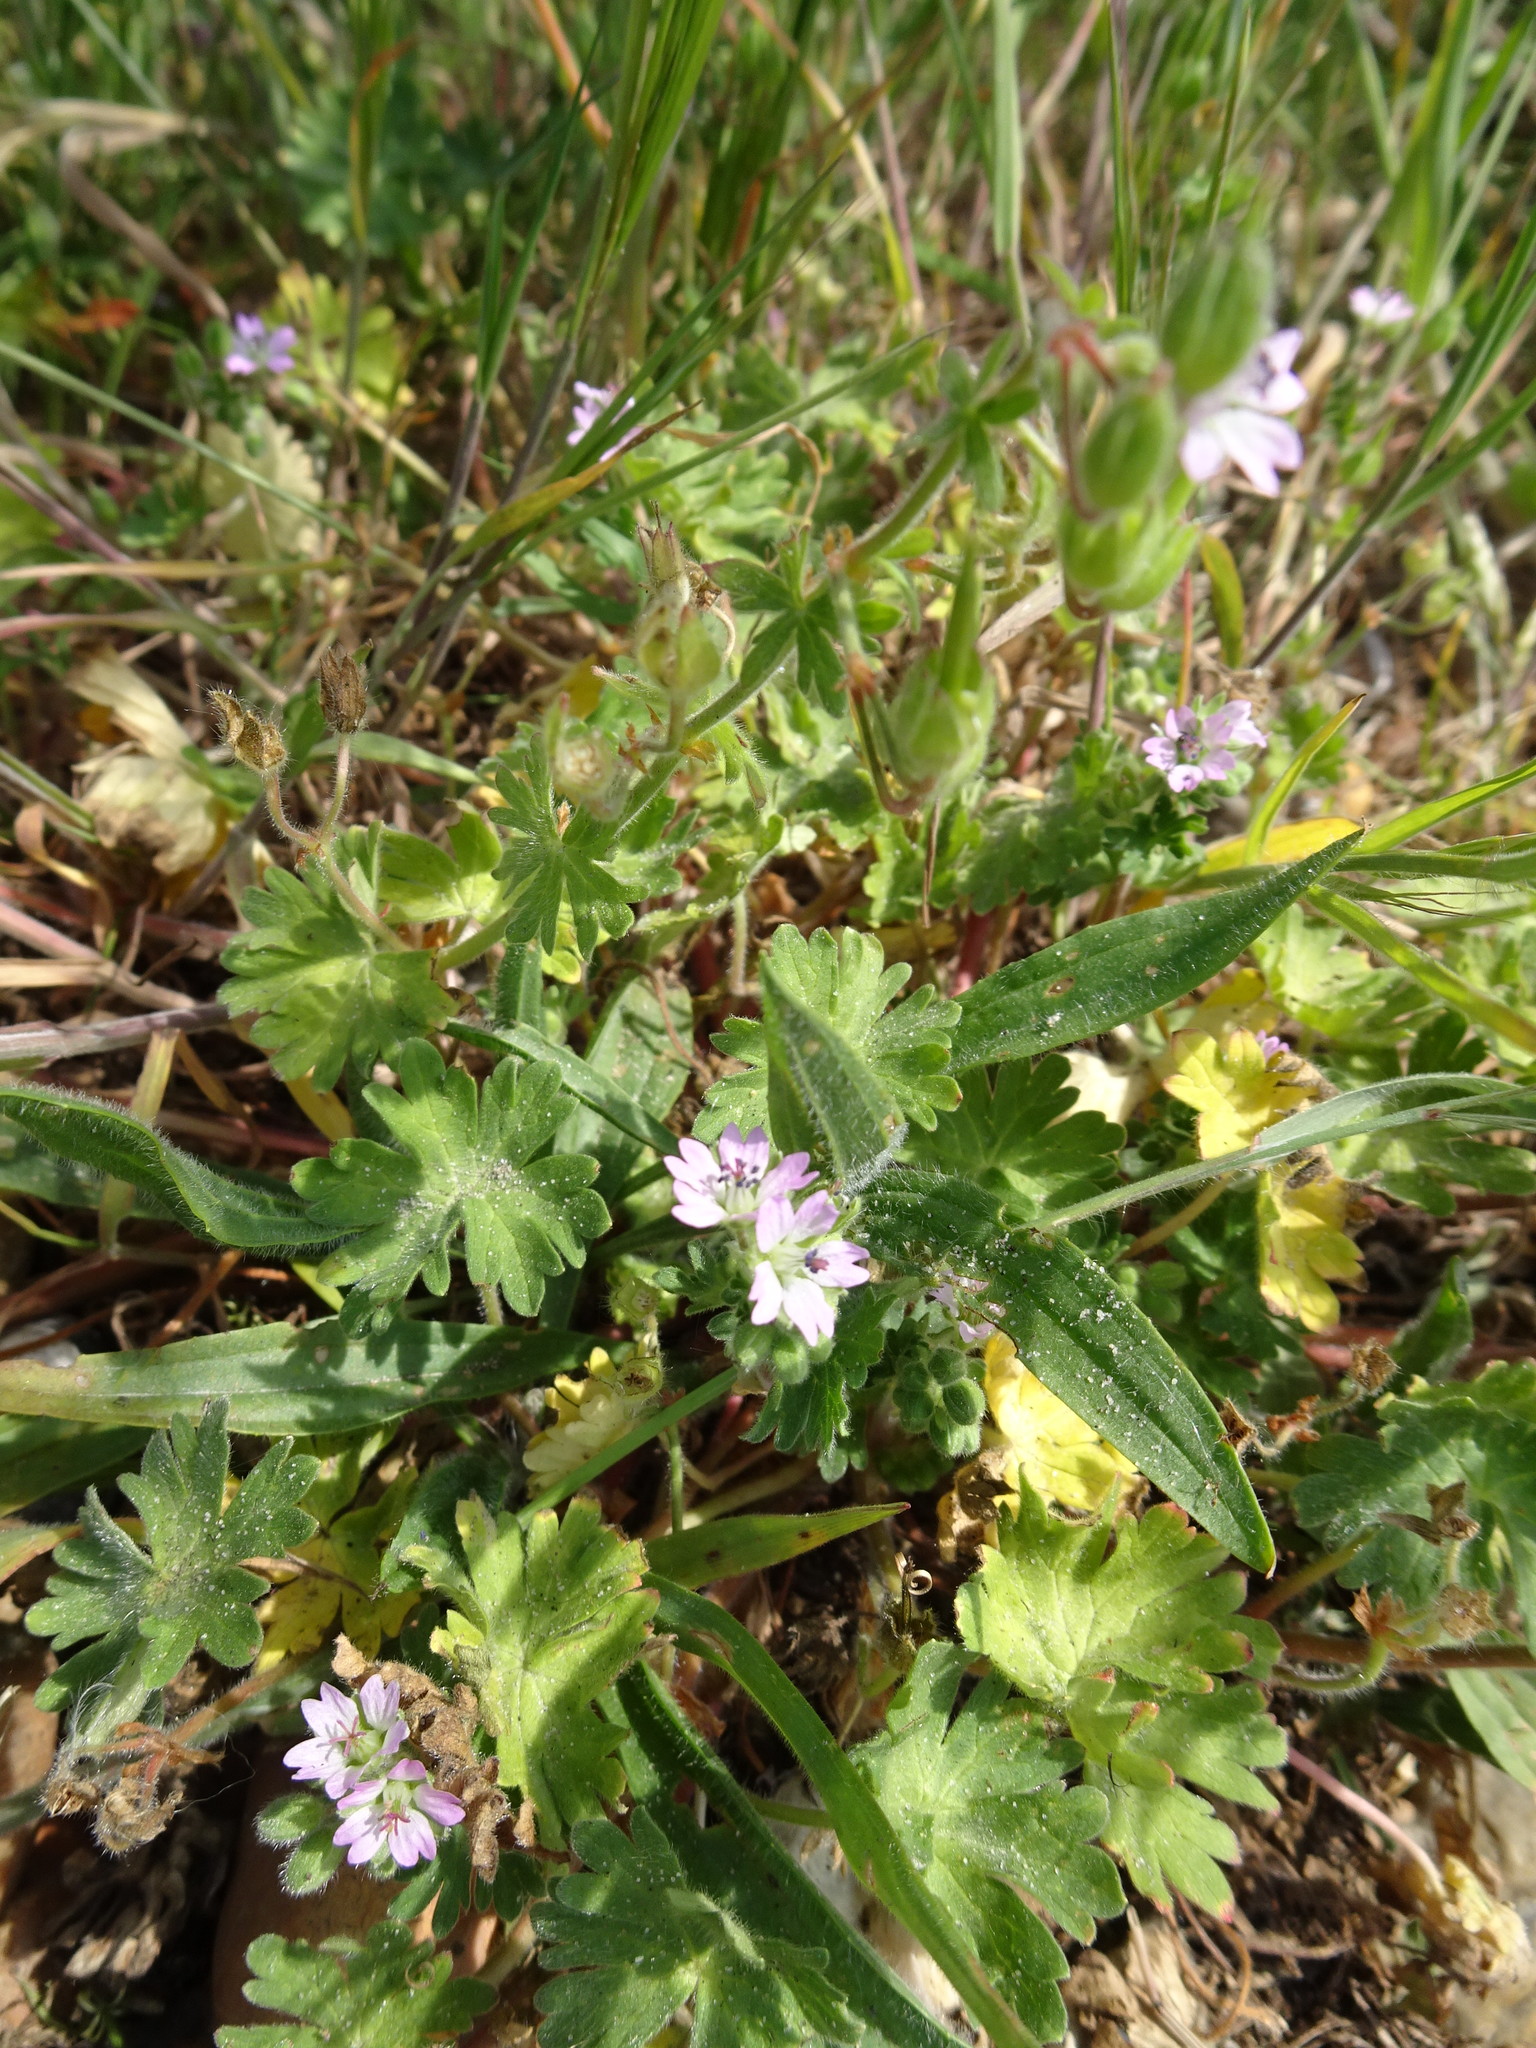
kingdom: Plantae
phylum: Tracheophyta
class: Magnoliopsida
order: Geraniales
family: Geraniaceae
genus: Geranium
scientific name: Geranium molle
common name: Dove's-foot crane's-bill
